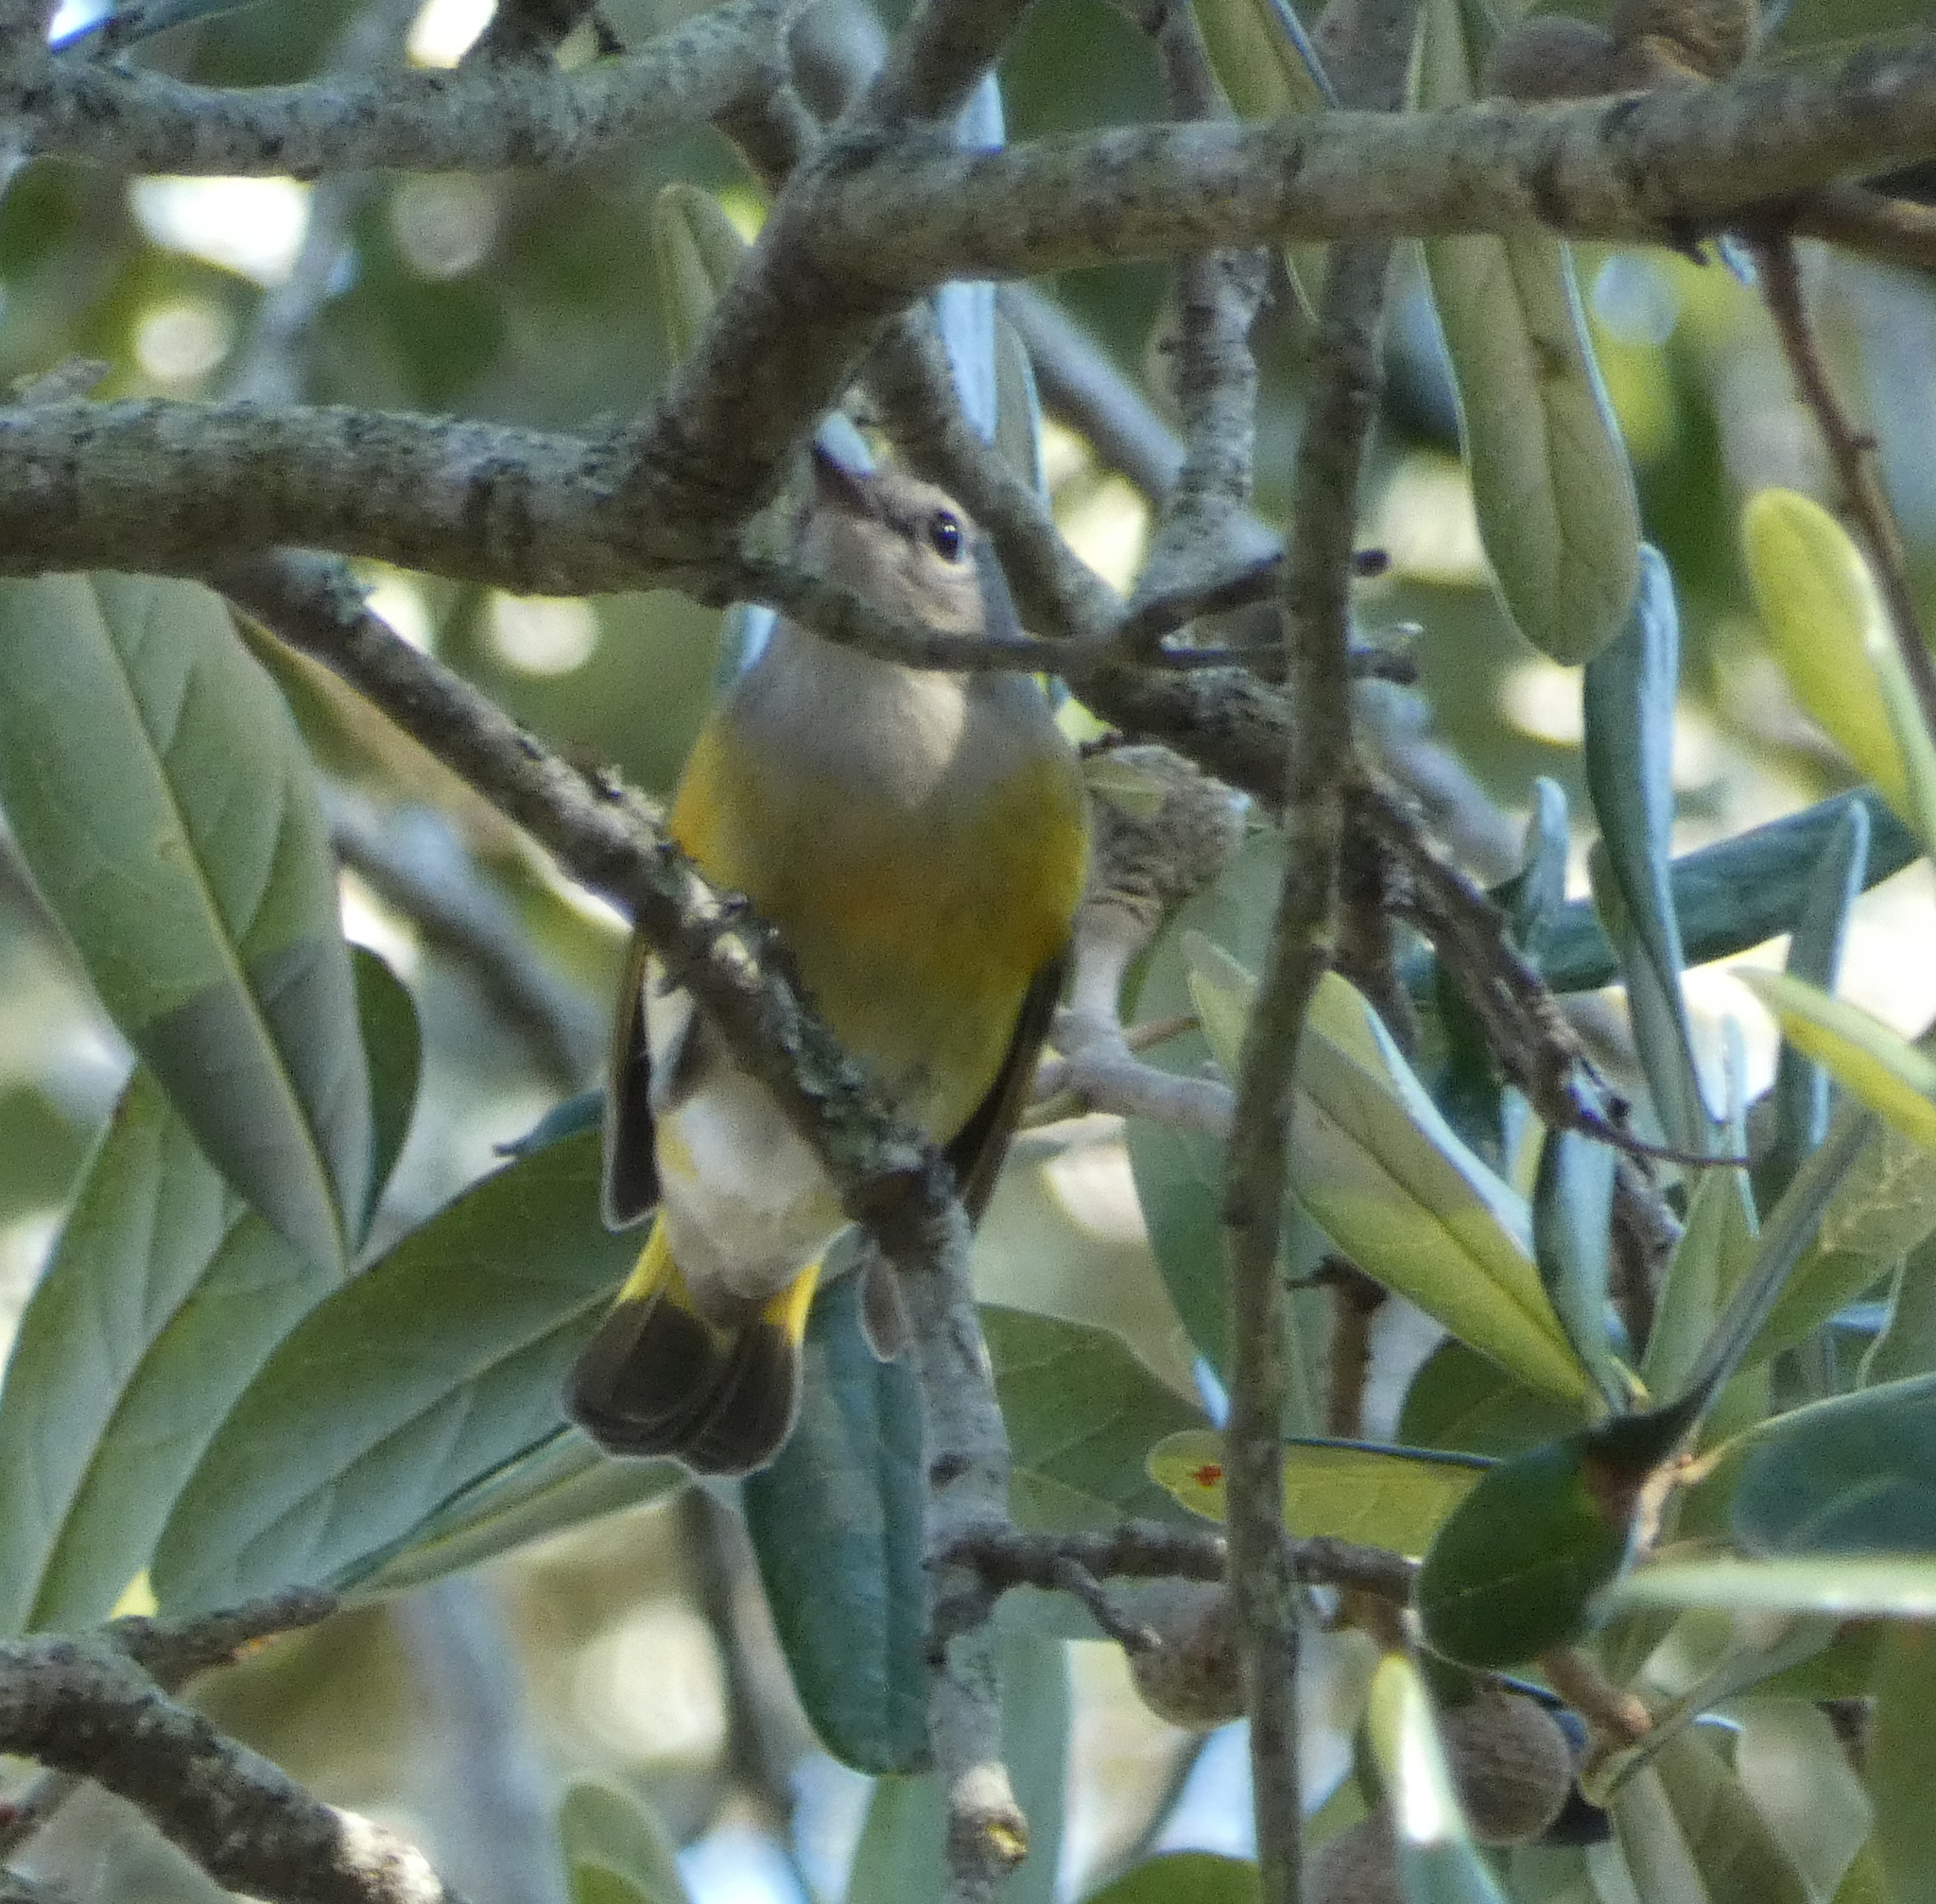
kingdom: Animalia
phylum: Chordata
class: Aves
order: Passeriformes
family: Parulidae
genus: Setophaga
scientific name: Setophaga ruticilla
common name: American redstart
